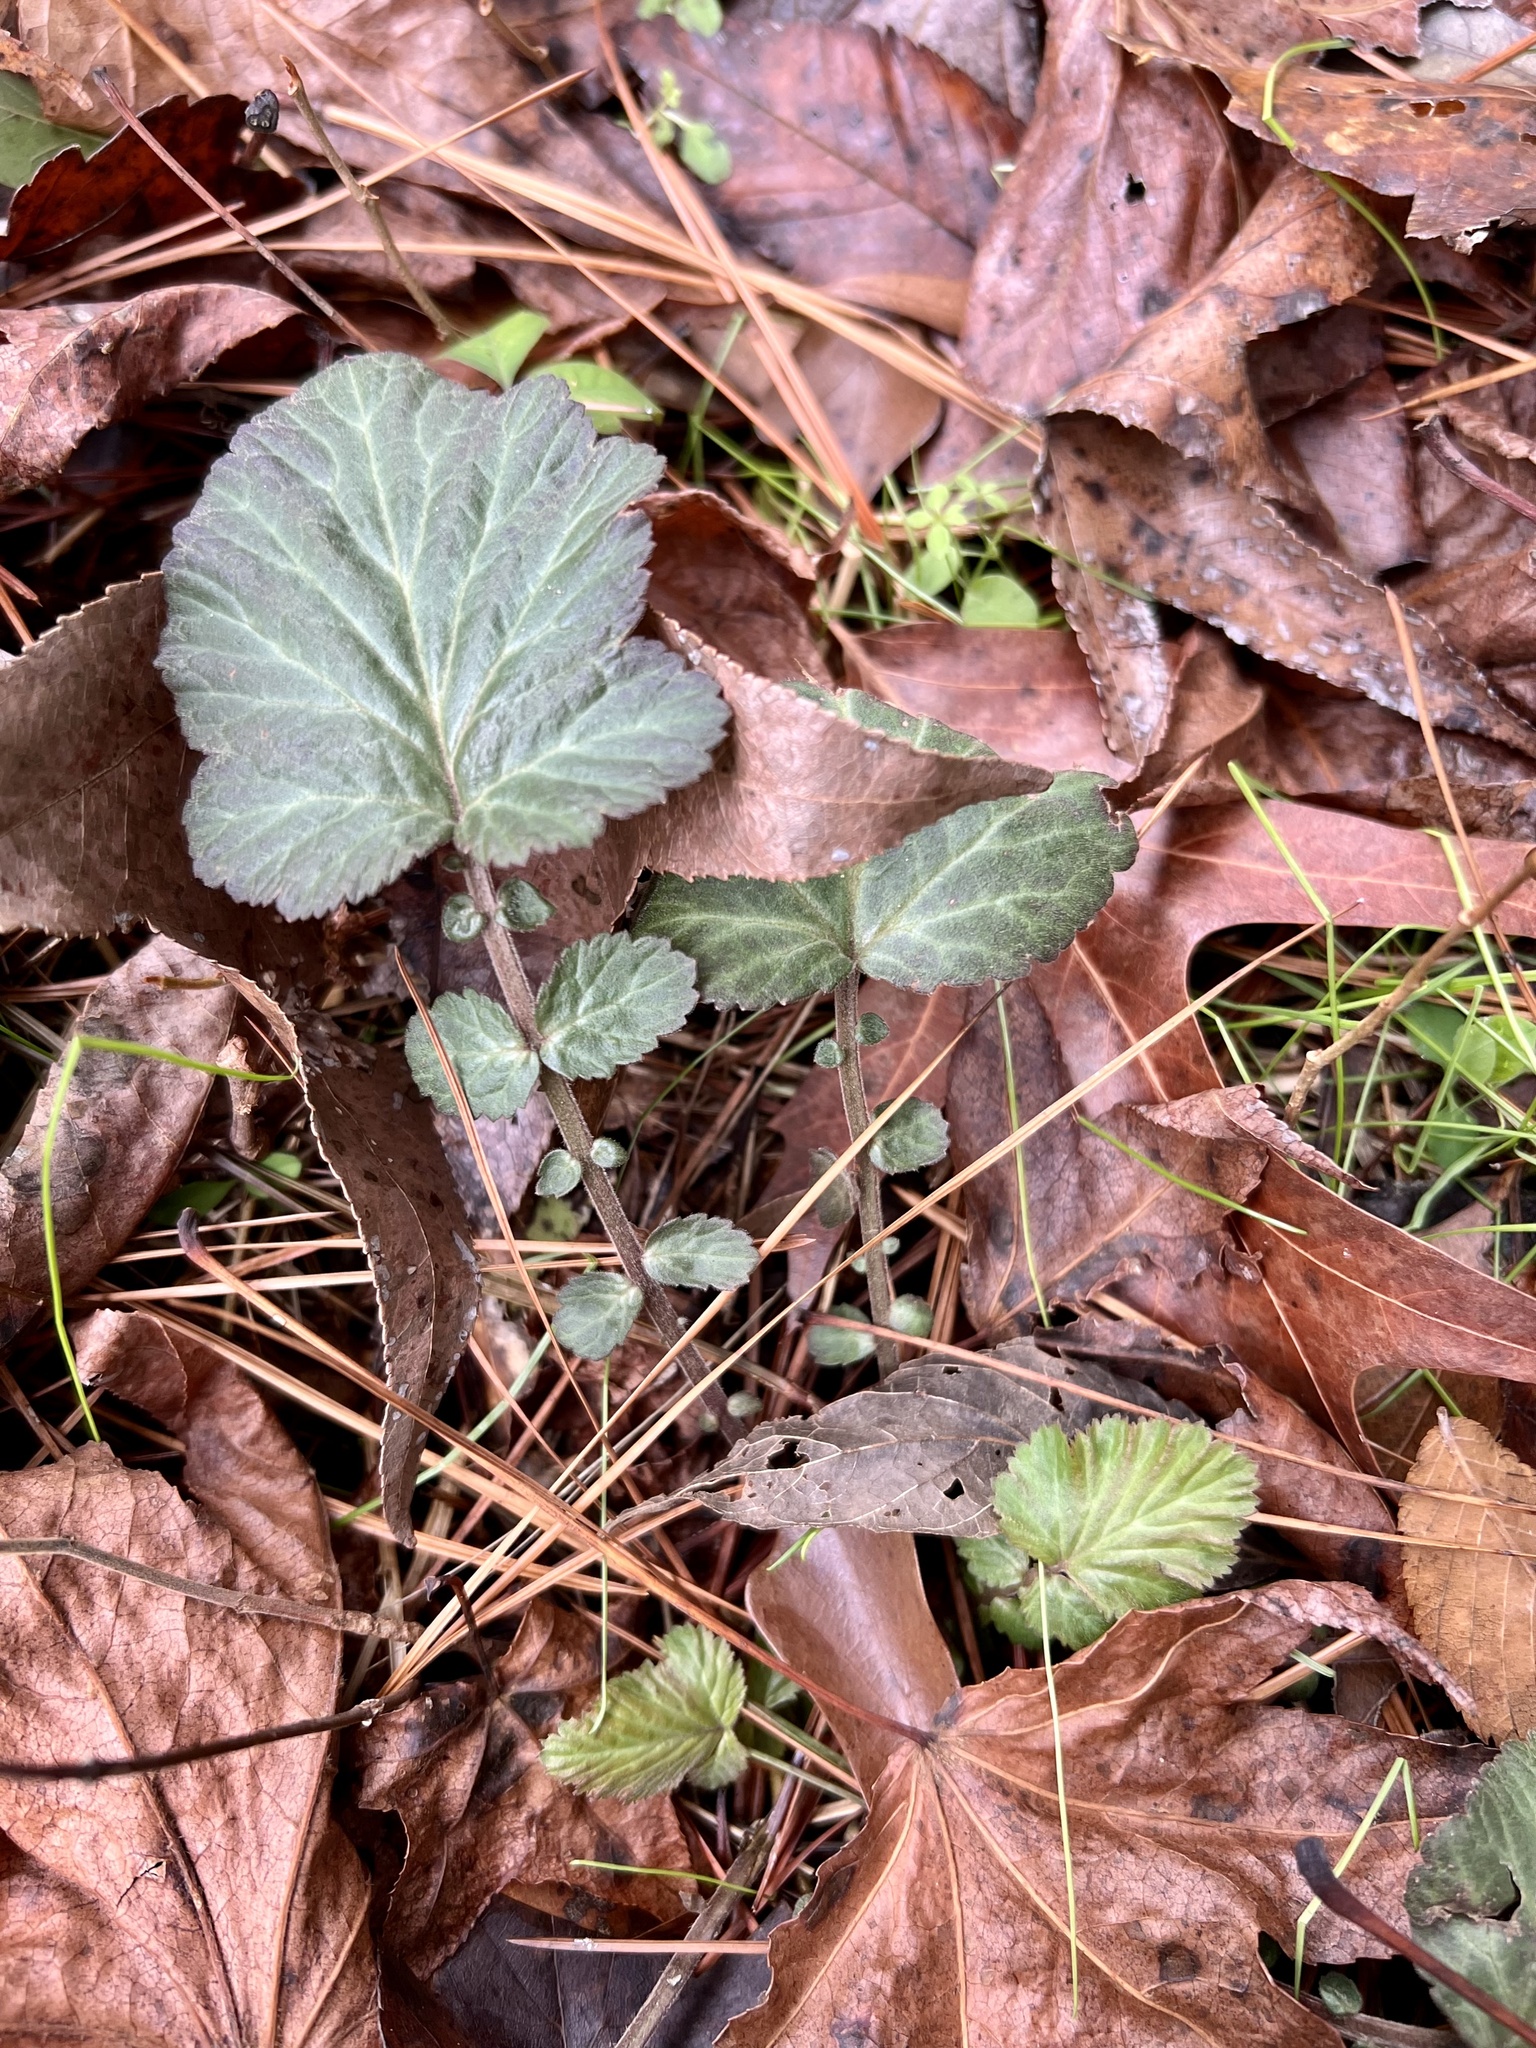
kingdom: Plantae
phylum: Tracheophyta
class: Magnoliopsida
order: Rosales
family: Rosaceae
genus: Geum
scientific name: Geum canadense
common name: White avens
